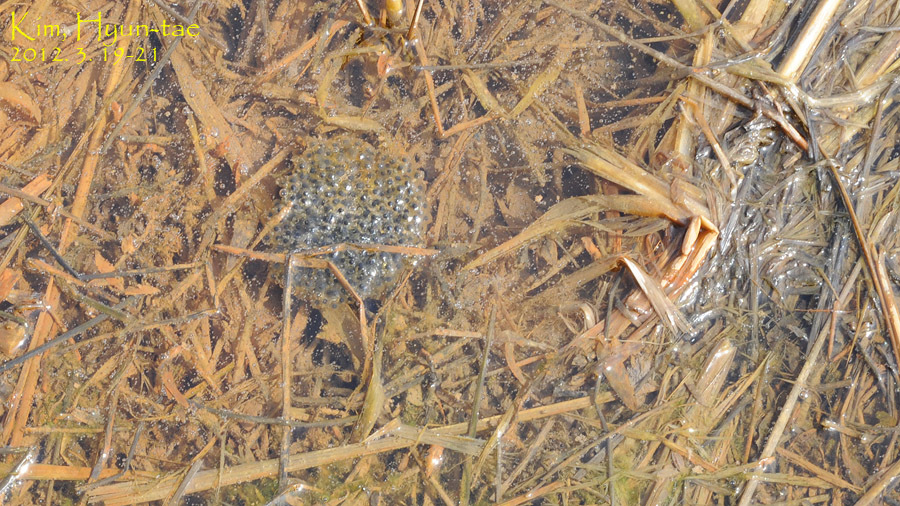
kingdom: Animalia
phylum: Chordata
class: Amphibia
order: Anura
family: Ranidae
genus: Rana
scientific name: Rana coreana
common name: Korean brown frog
